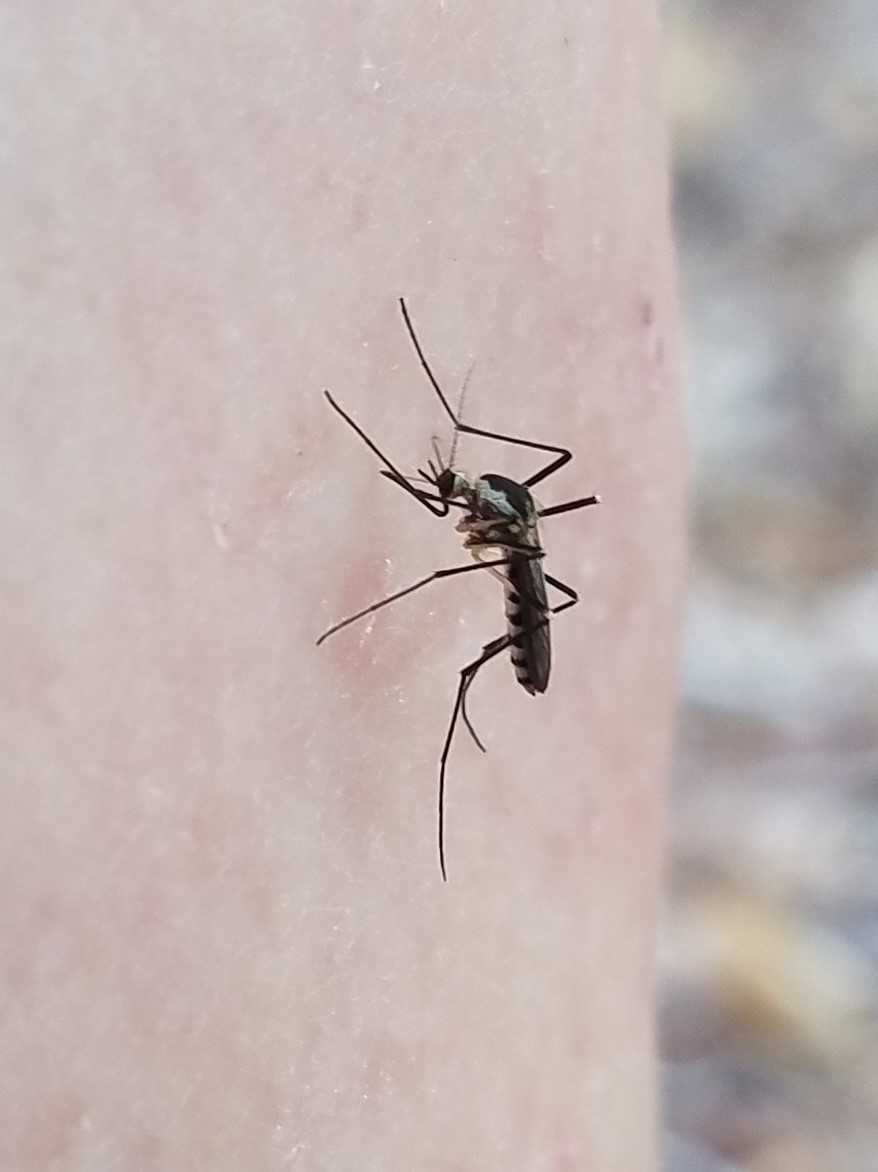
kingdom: Animalia
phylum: Arthropoda
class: Insecta
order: Diptera
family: Culicidae
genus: Aedes
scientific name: Aedes triseriatus
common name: Eastern treehole mosquito
